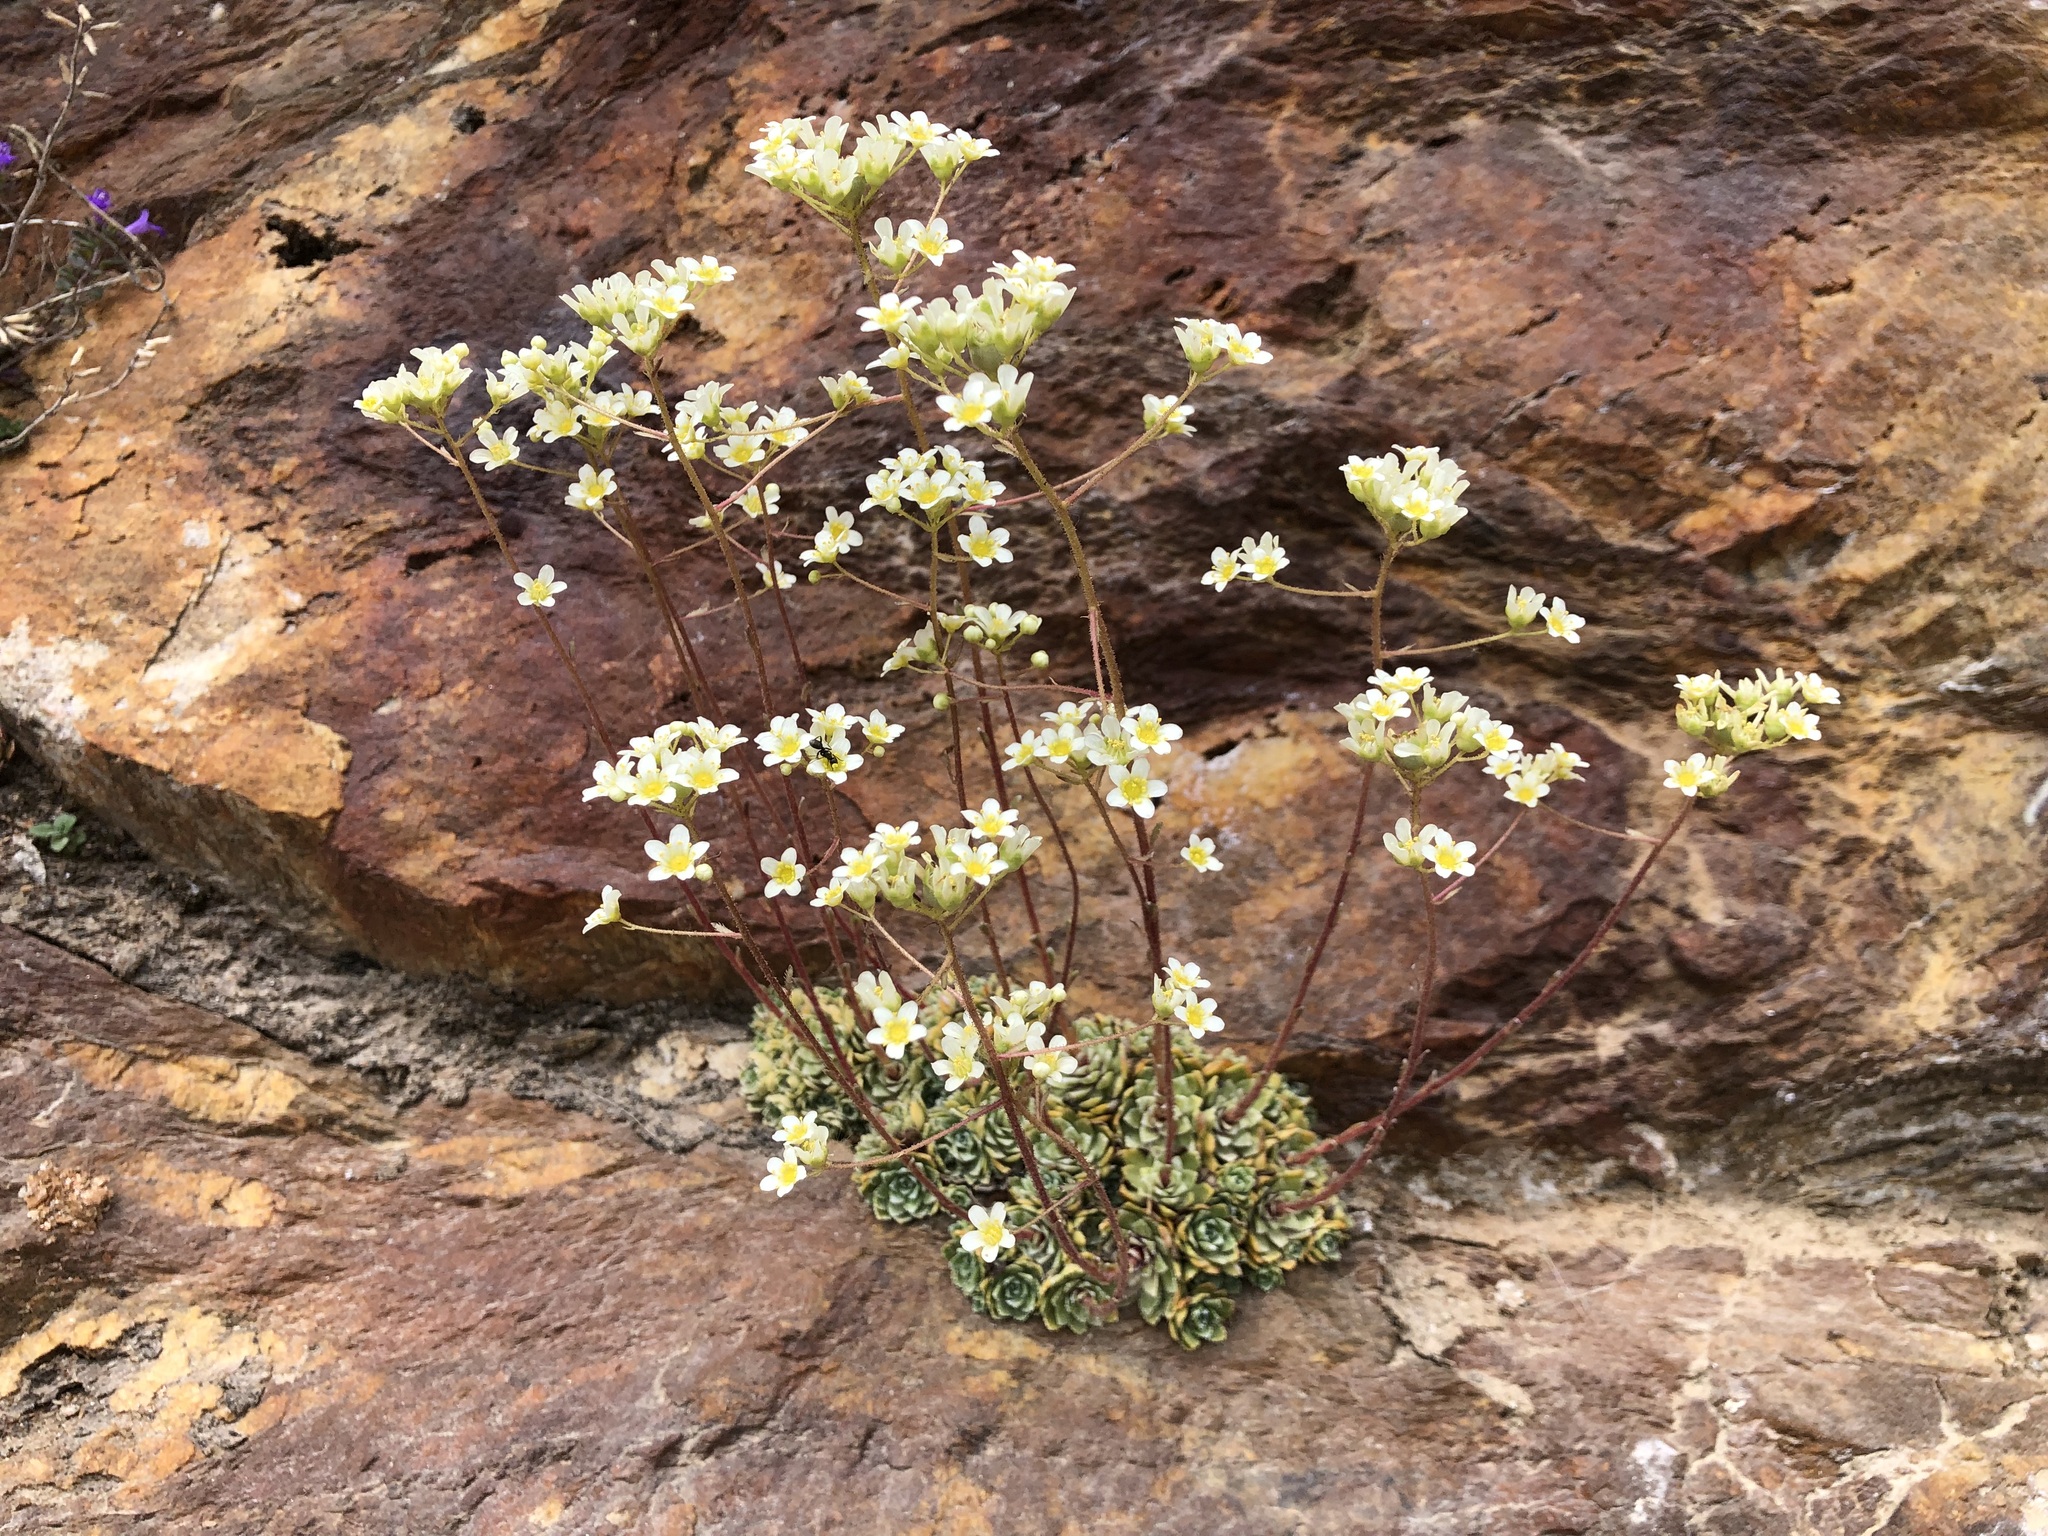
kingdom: Plantae
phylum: Tracheophyta
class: Magnoliopsida
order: Saxifragales
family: Saxifragaceae
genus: Saxifraga
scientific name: Saxifraga paniculata
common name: Livelong saxifrage
